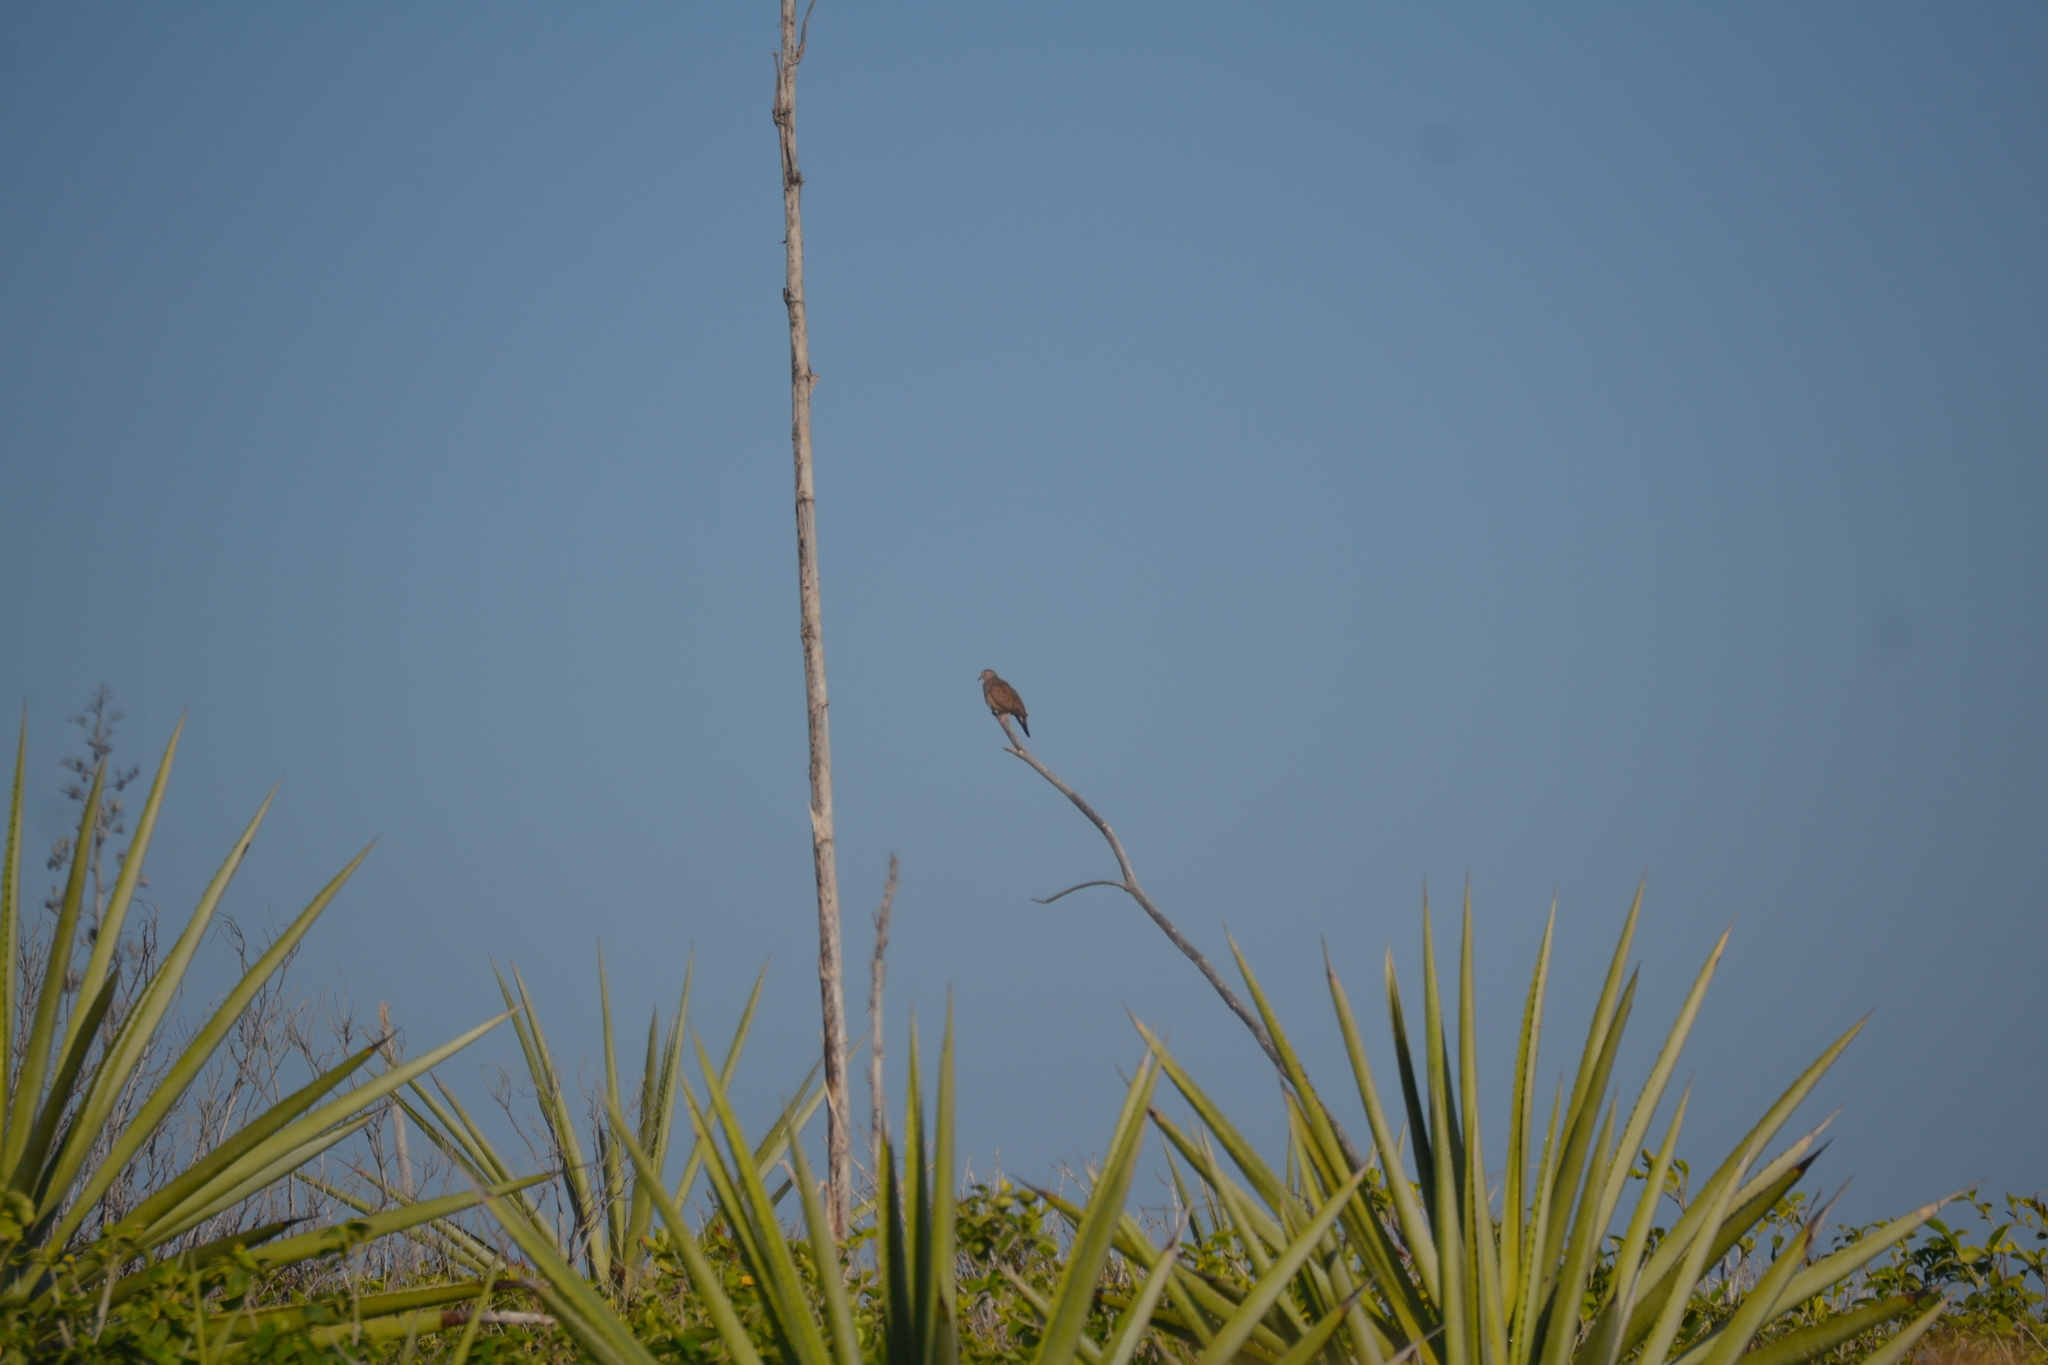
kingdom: Animalia
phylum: Chordata
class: Aves
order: Columbiformes
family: Columbidae
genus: Columbina
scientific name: Columbina passerina
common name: Common ground-dove
